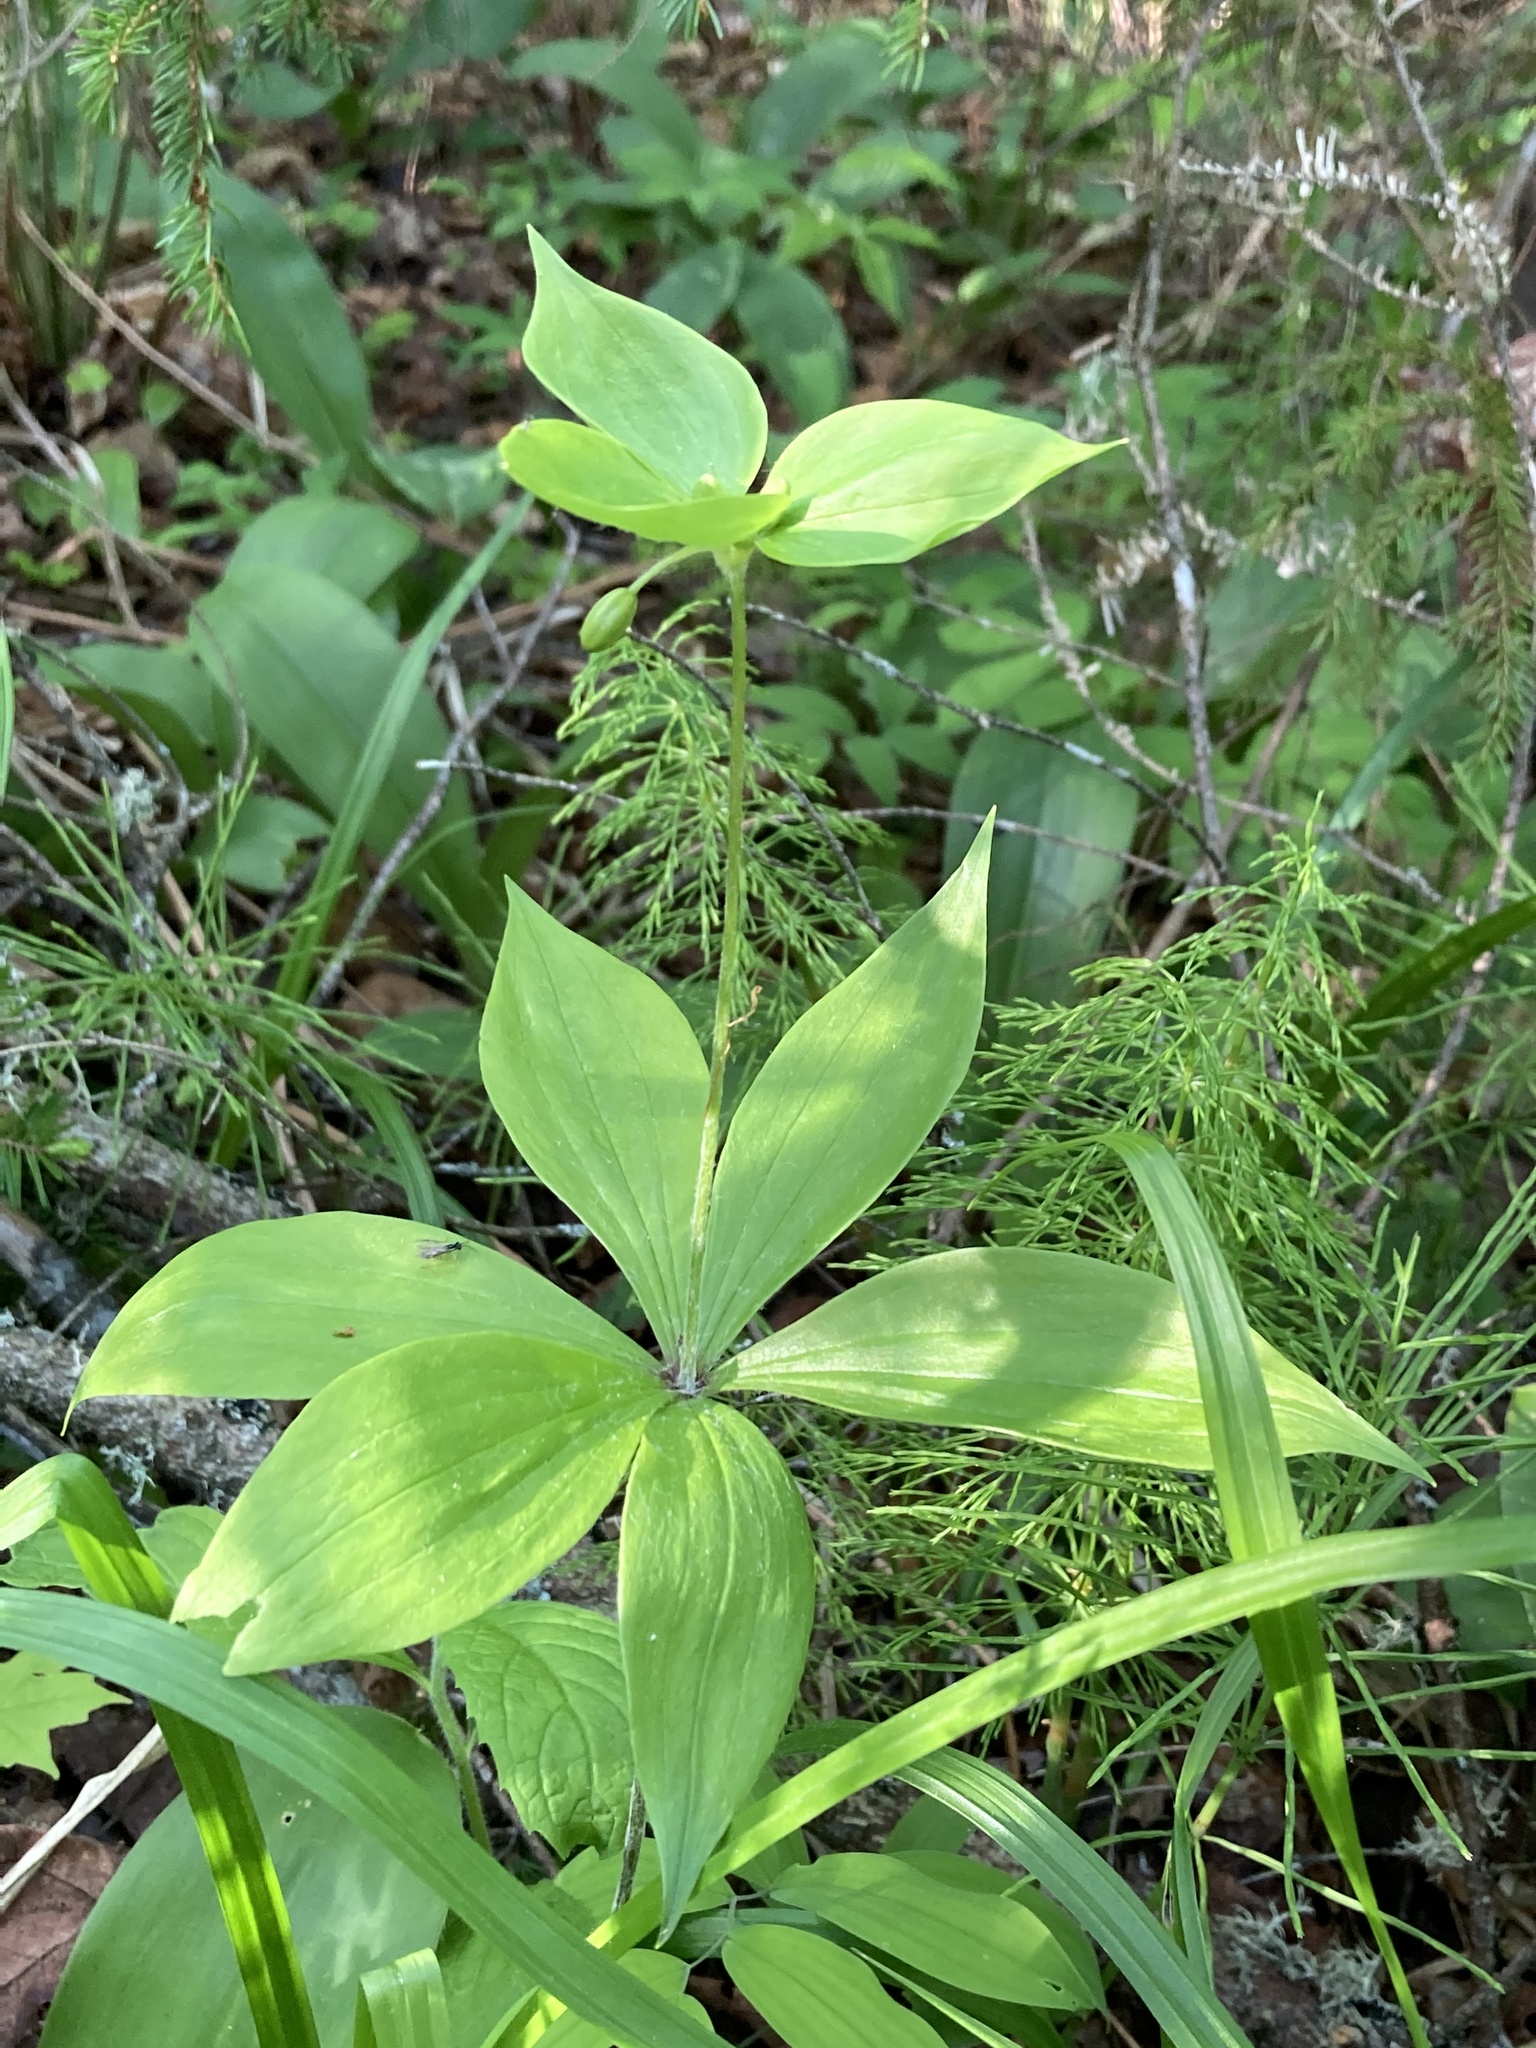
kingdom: Plantae
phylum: Tracheophyta
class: Liliopsida
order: Liliales
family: Liliaceae
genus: Medeola
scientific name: Medeola virginiana
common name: Indian cucumber-root
